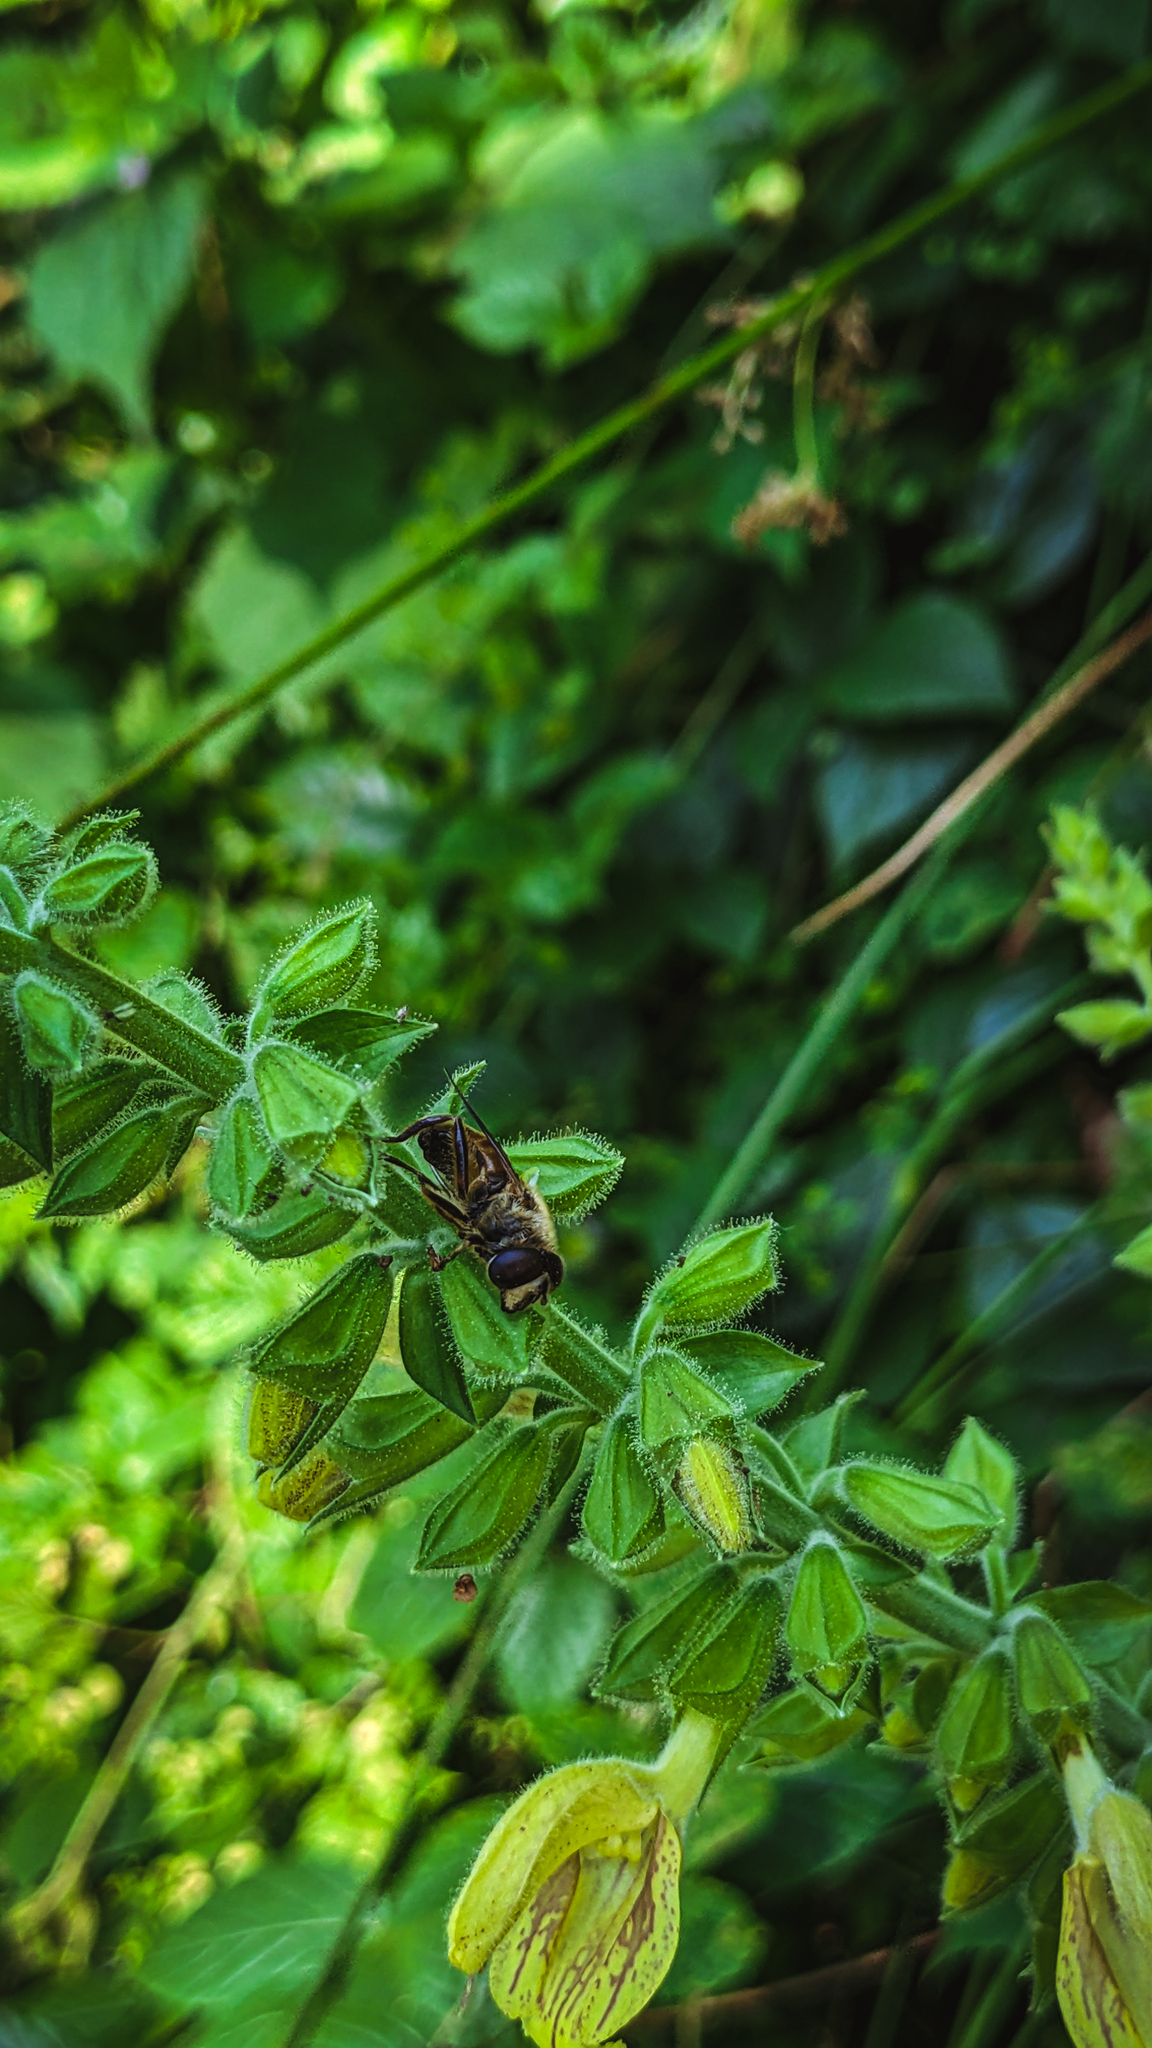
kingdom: Animalia
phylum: Arthropoda
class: Insecta
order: Diptera
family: Syrphidae
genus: Eristalis
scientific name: Eristalis tenax
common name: Drone fly
